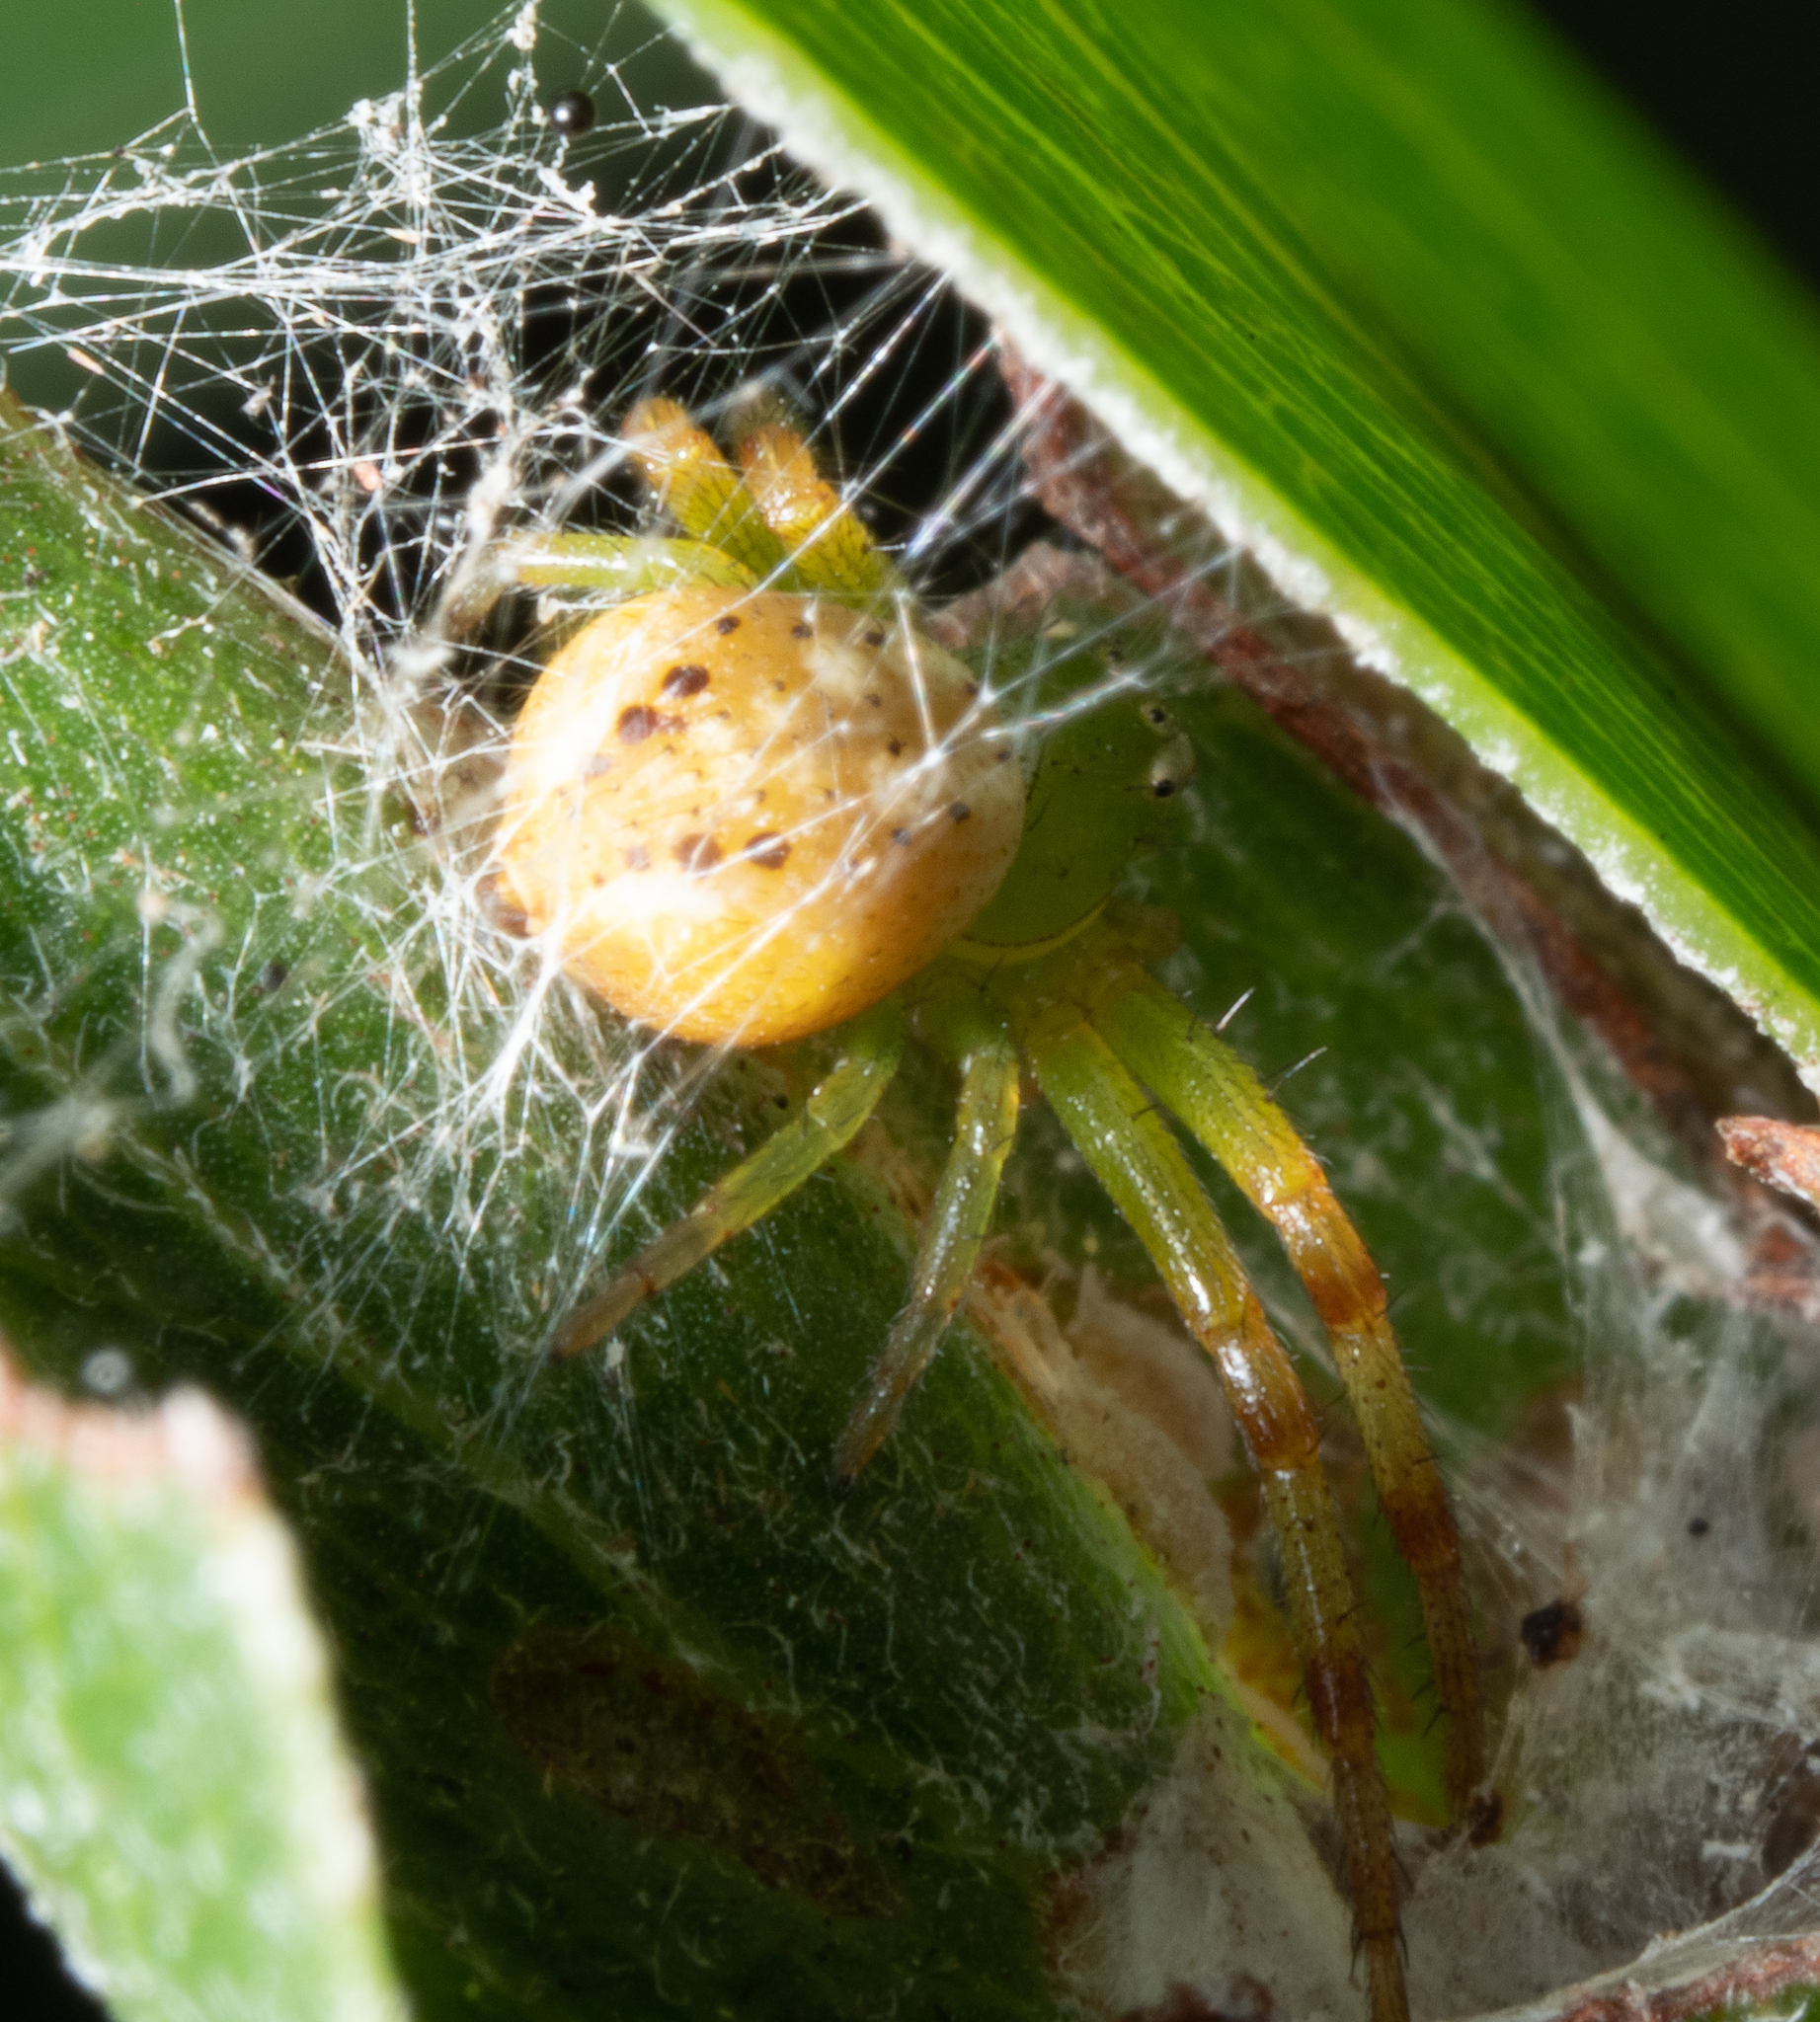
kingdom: Animalia
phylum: Arthropoda
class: Arachnida
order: Araneae
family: Thomisidae
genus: Australomisidia
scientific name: Australomisidia pilula
